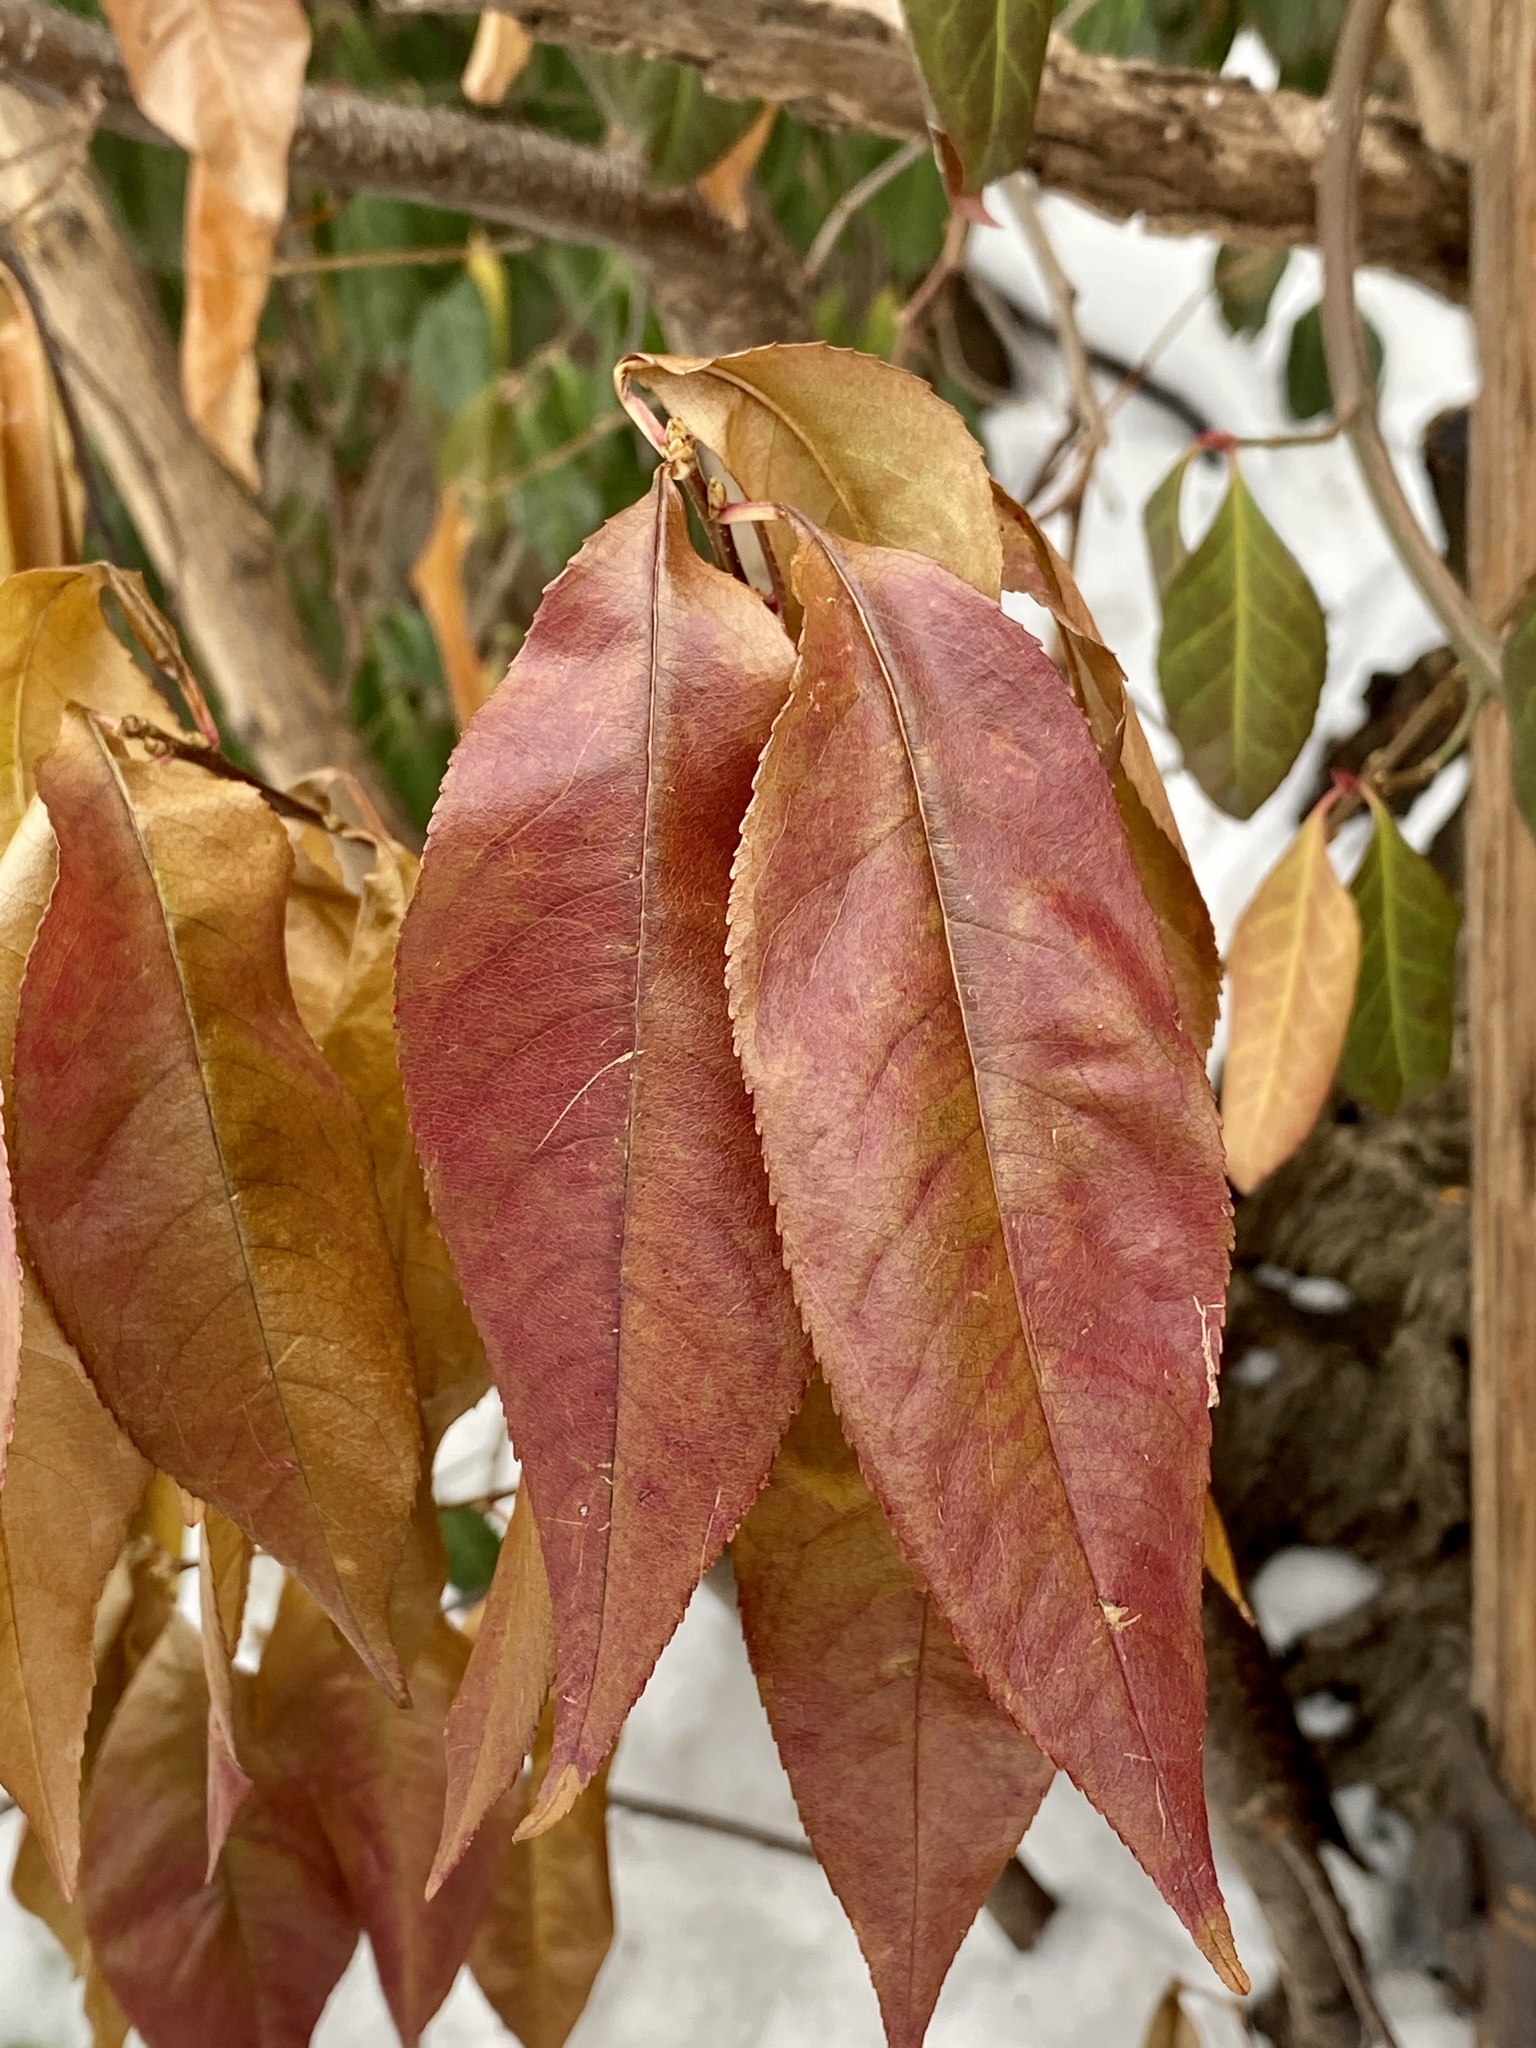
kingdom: Plantae
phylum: Tracheophyta
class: Magnoliopsida
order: Rosales
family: Rosaceae
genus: Prunus
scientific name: Prunus serotina
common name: Black cherry
